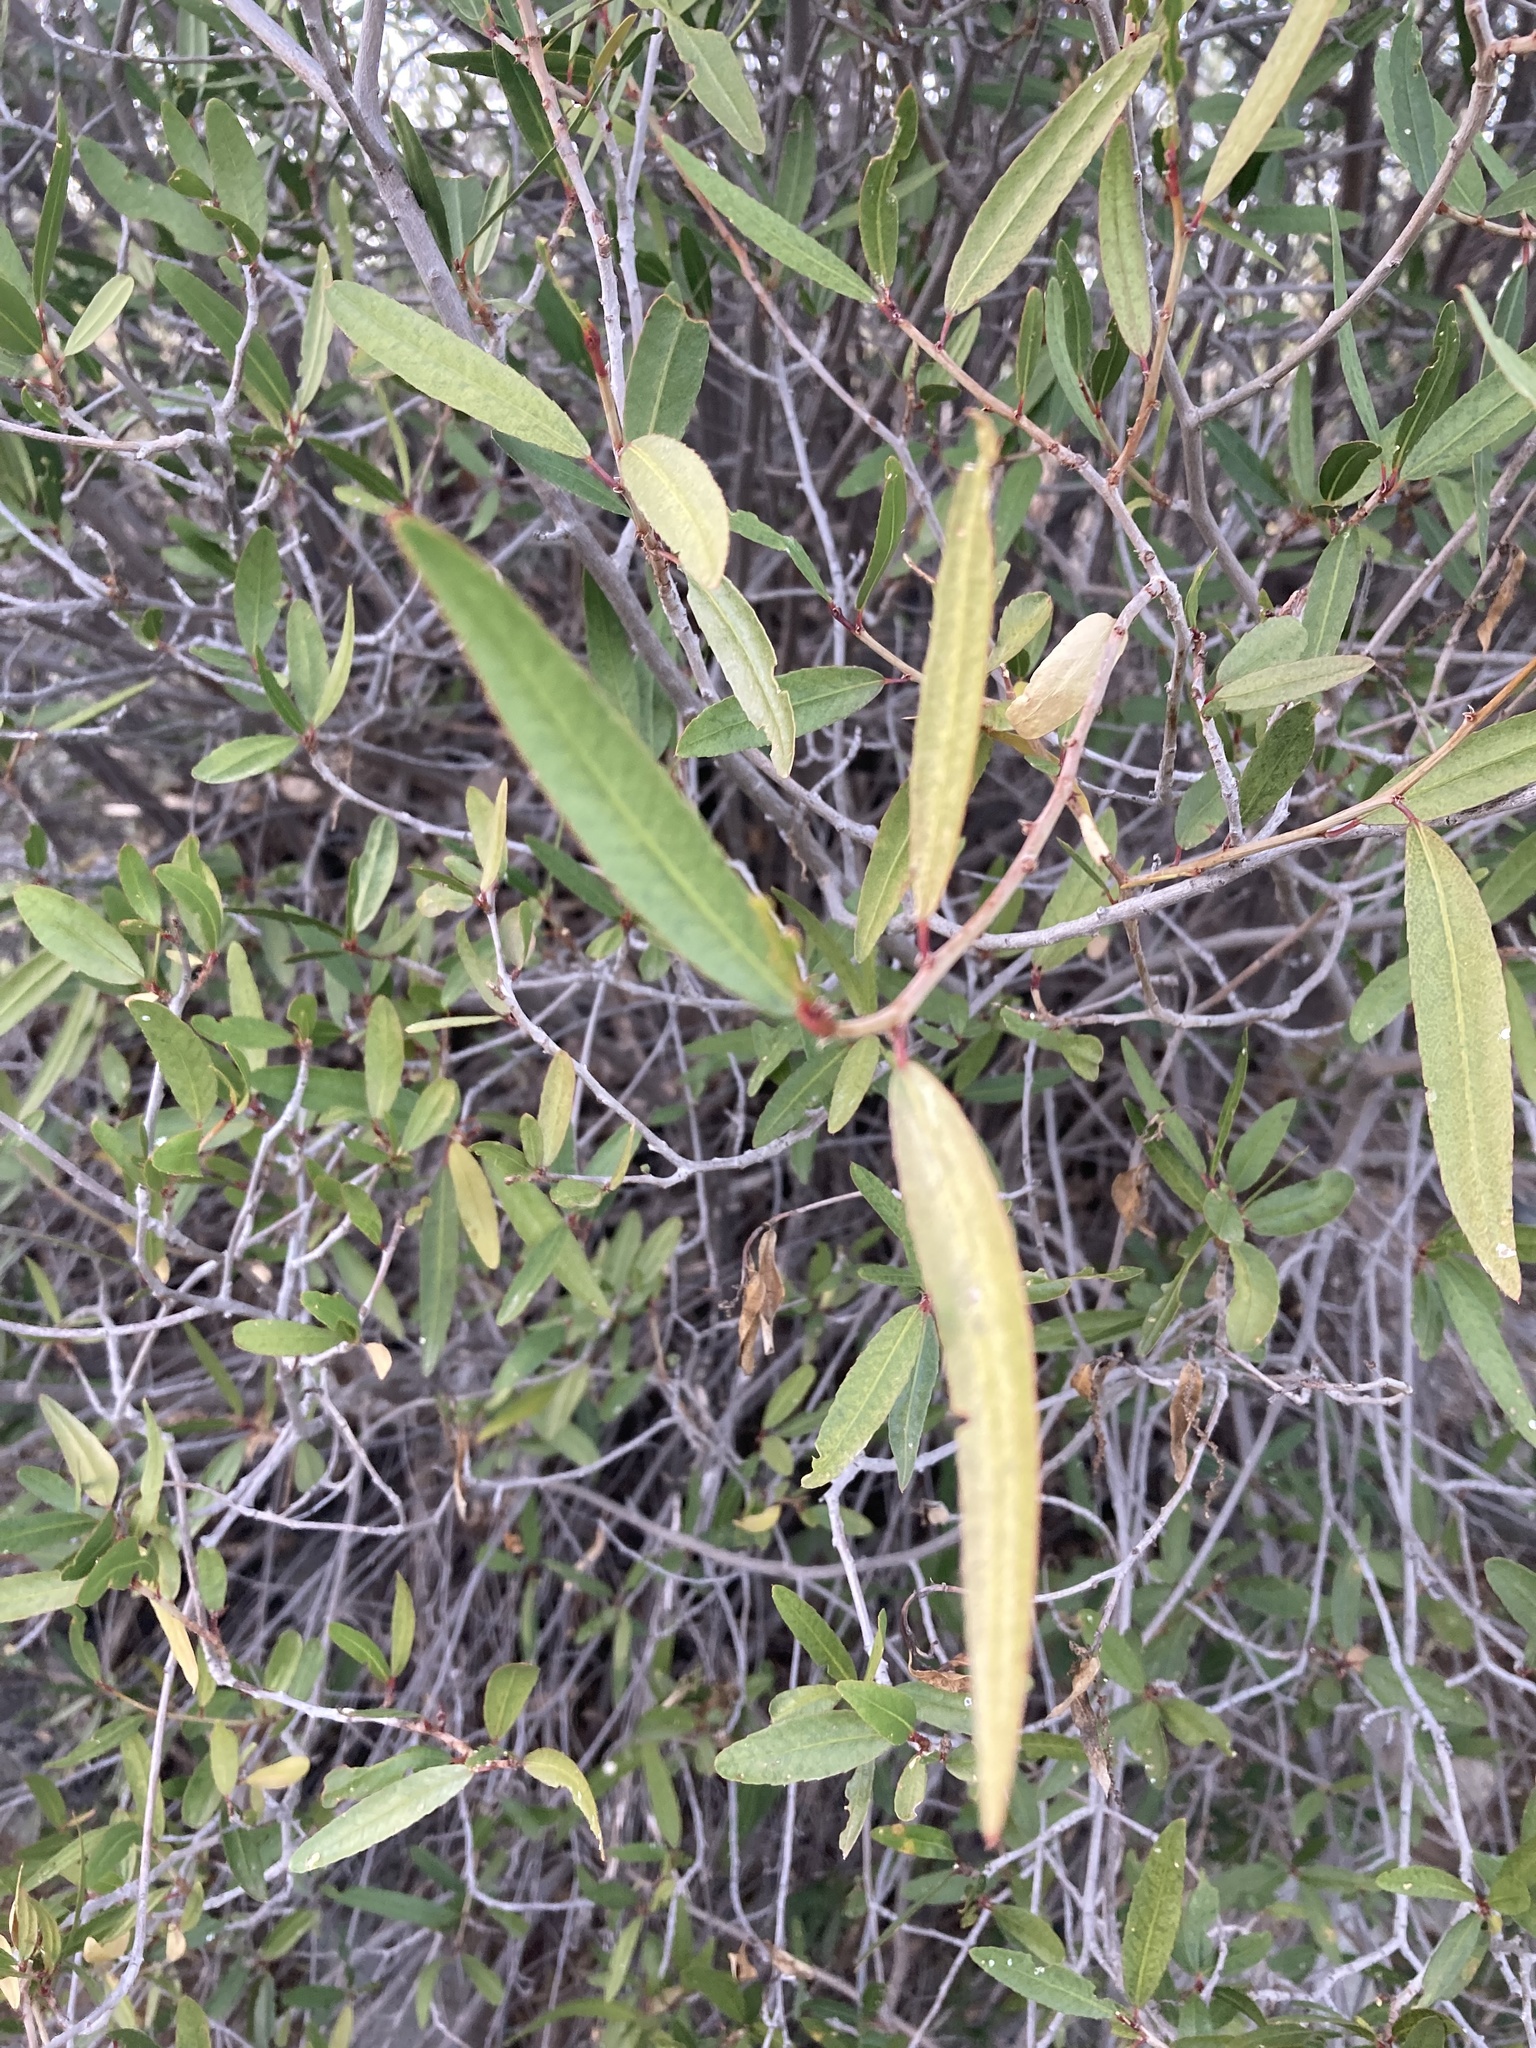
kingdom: Plantae
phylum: Tracheophyta
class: Magnoliopsida
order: Malpighiales
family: Euphorbiaceae
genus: Pleradenophora
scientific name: Pleradenophora bilocularis
